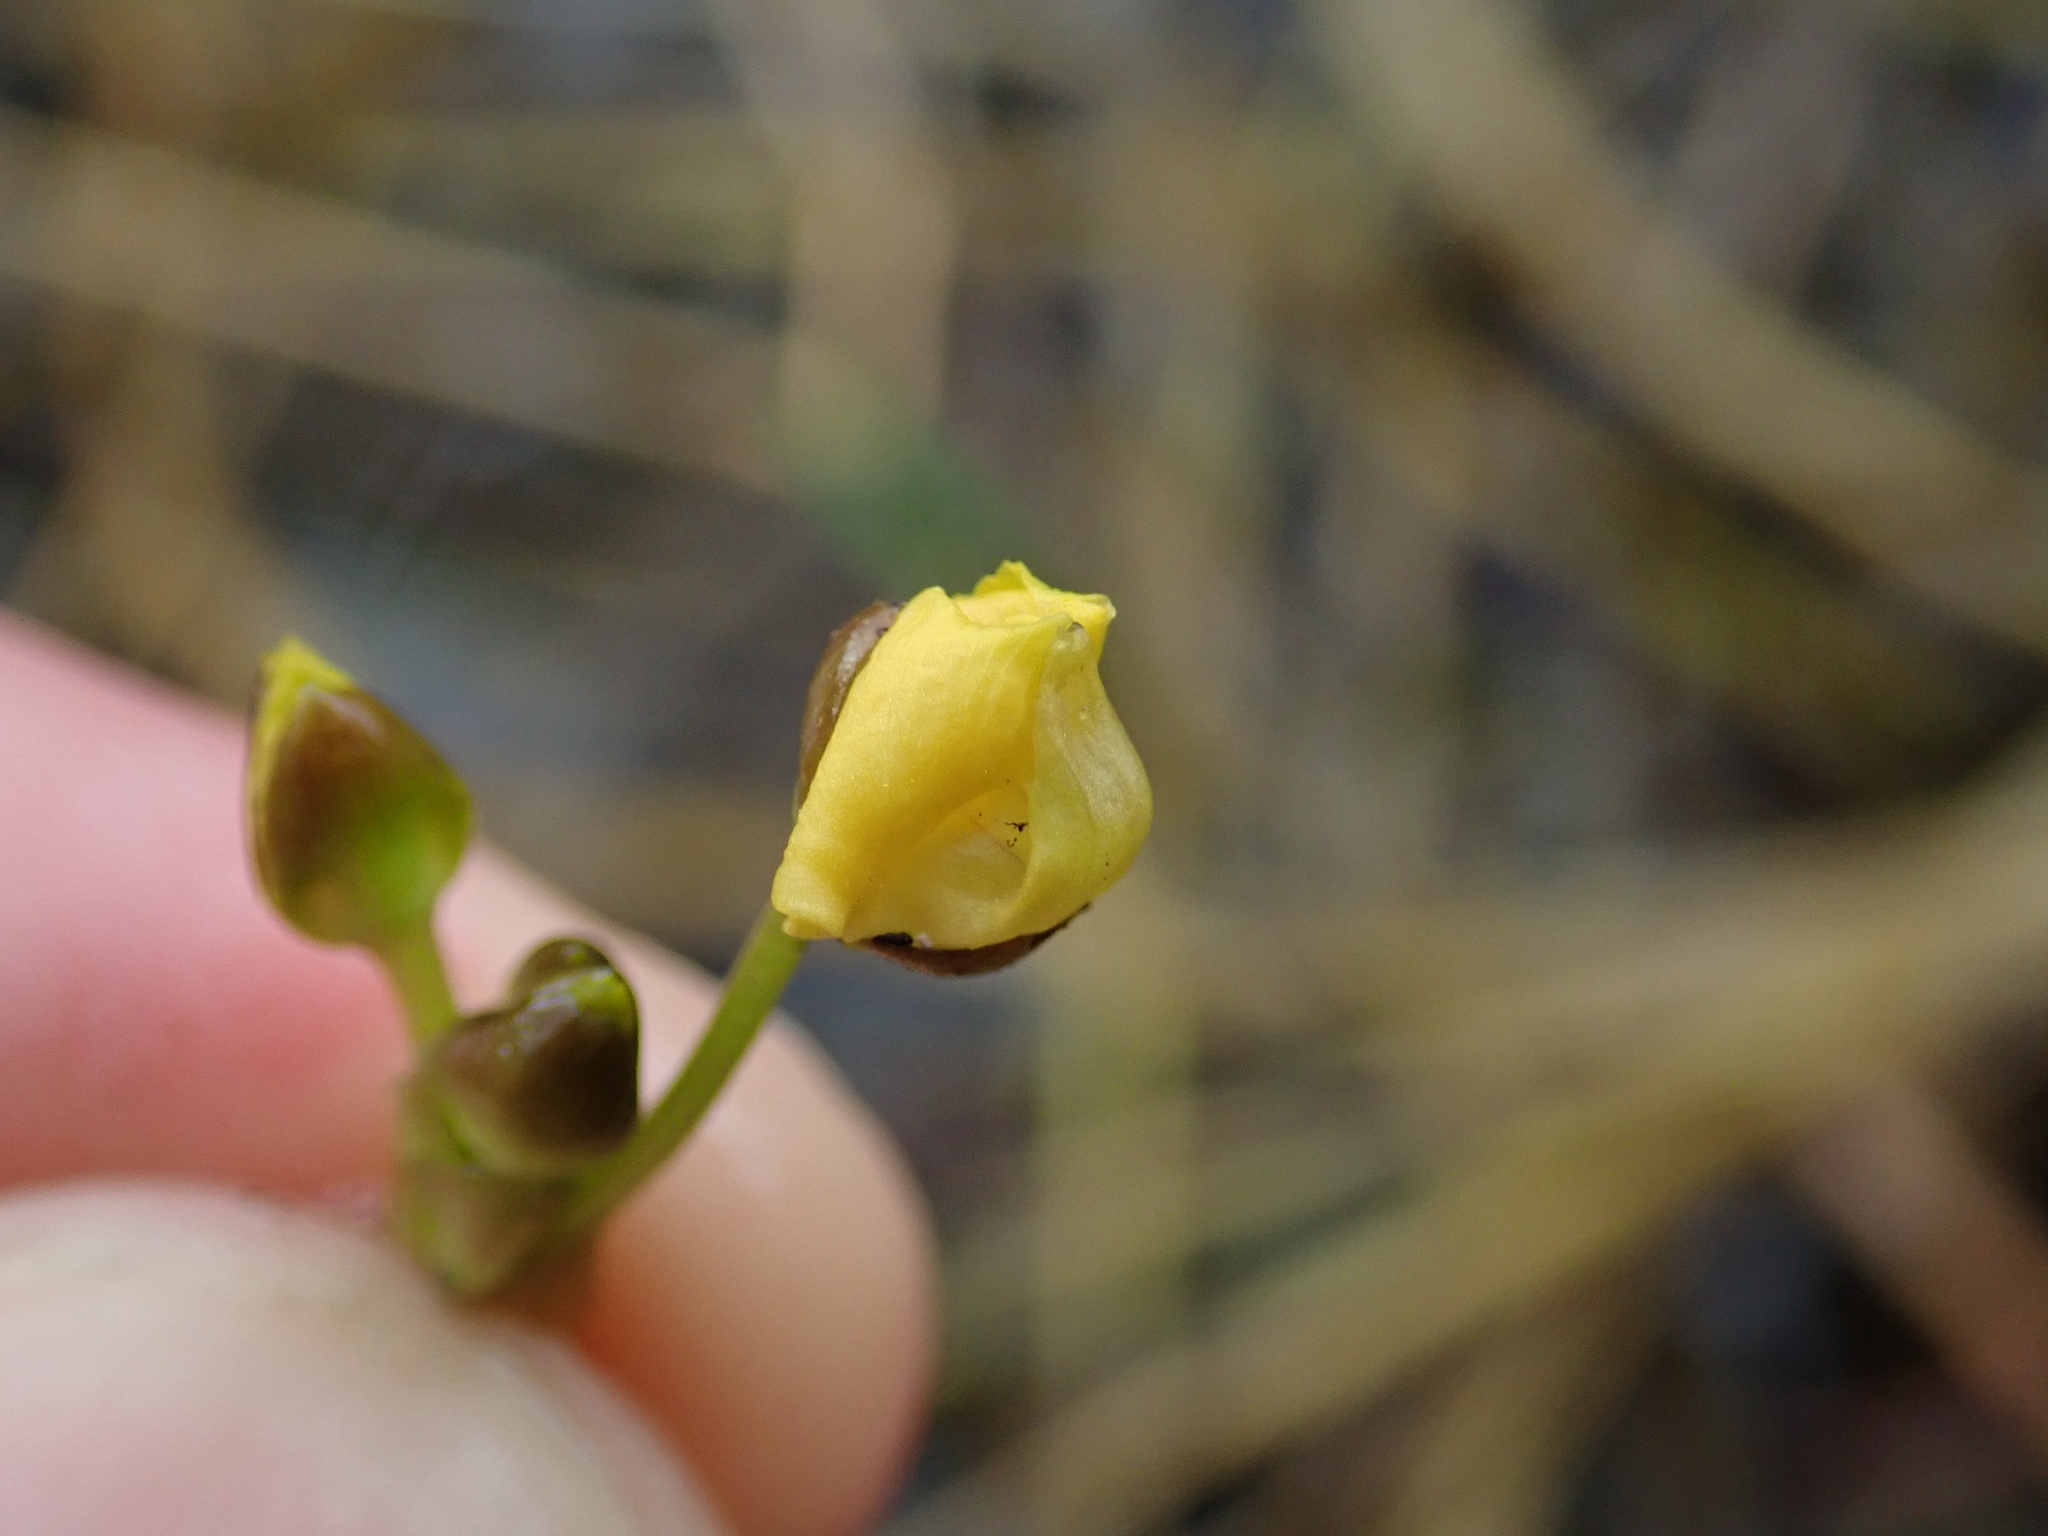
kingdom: Plantae
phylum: Tracheophyta
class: Magnoliopsida
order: Lamiales
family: Lentibulariaceae
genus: Utricularia
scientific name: Utricularia foliosa
